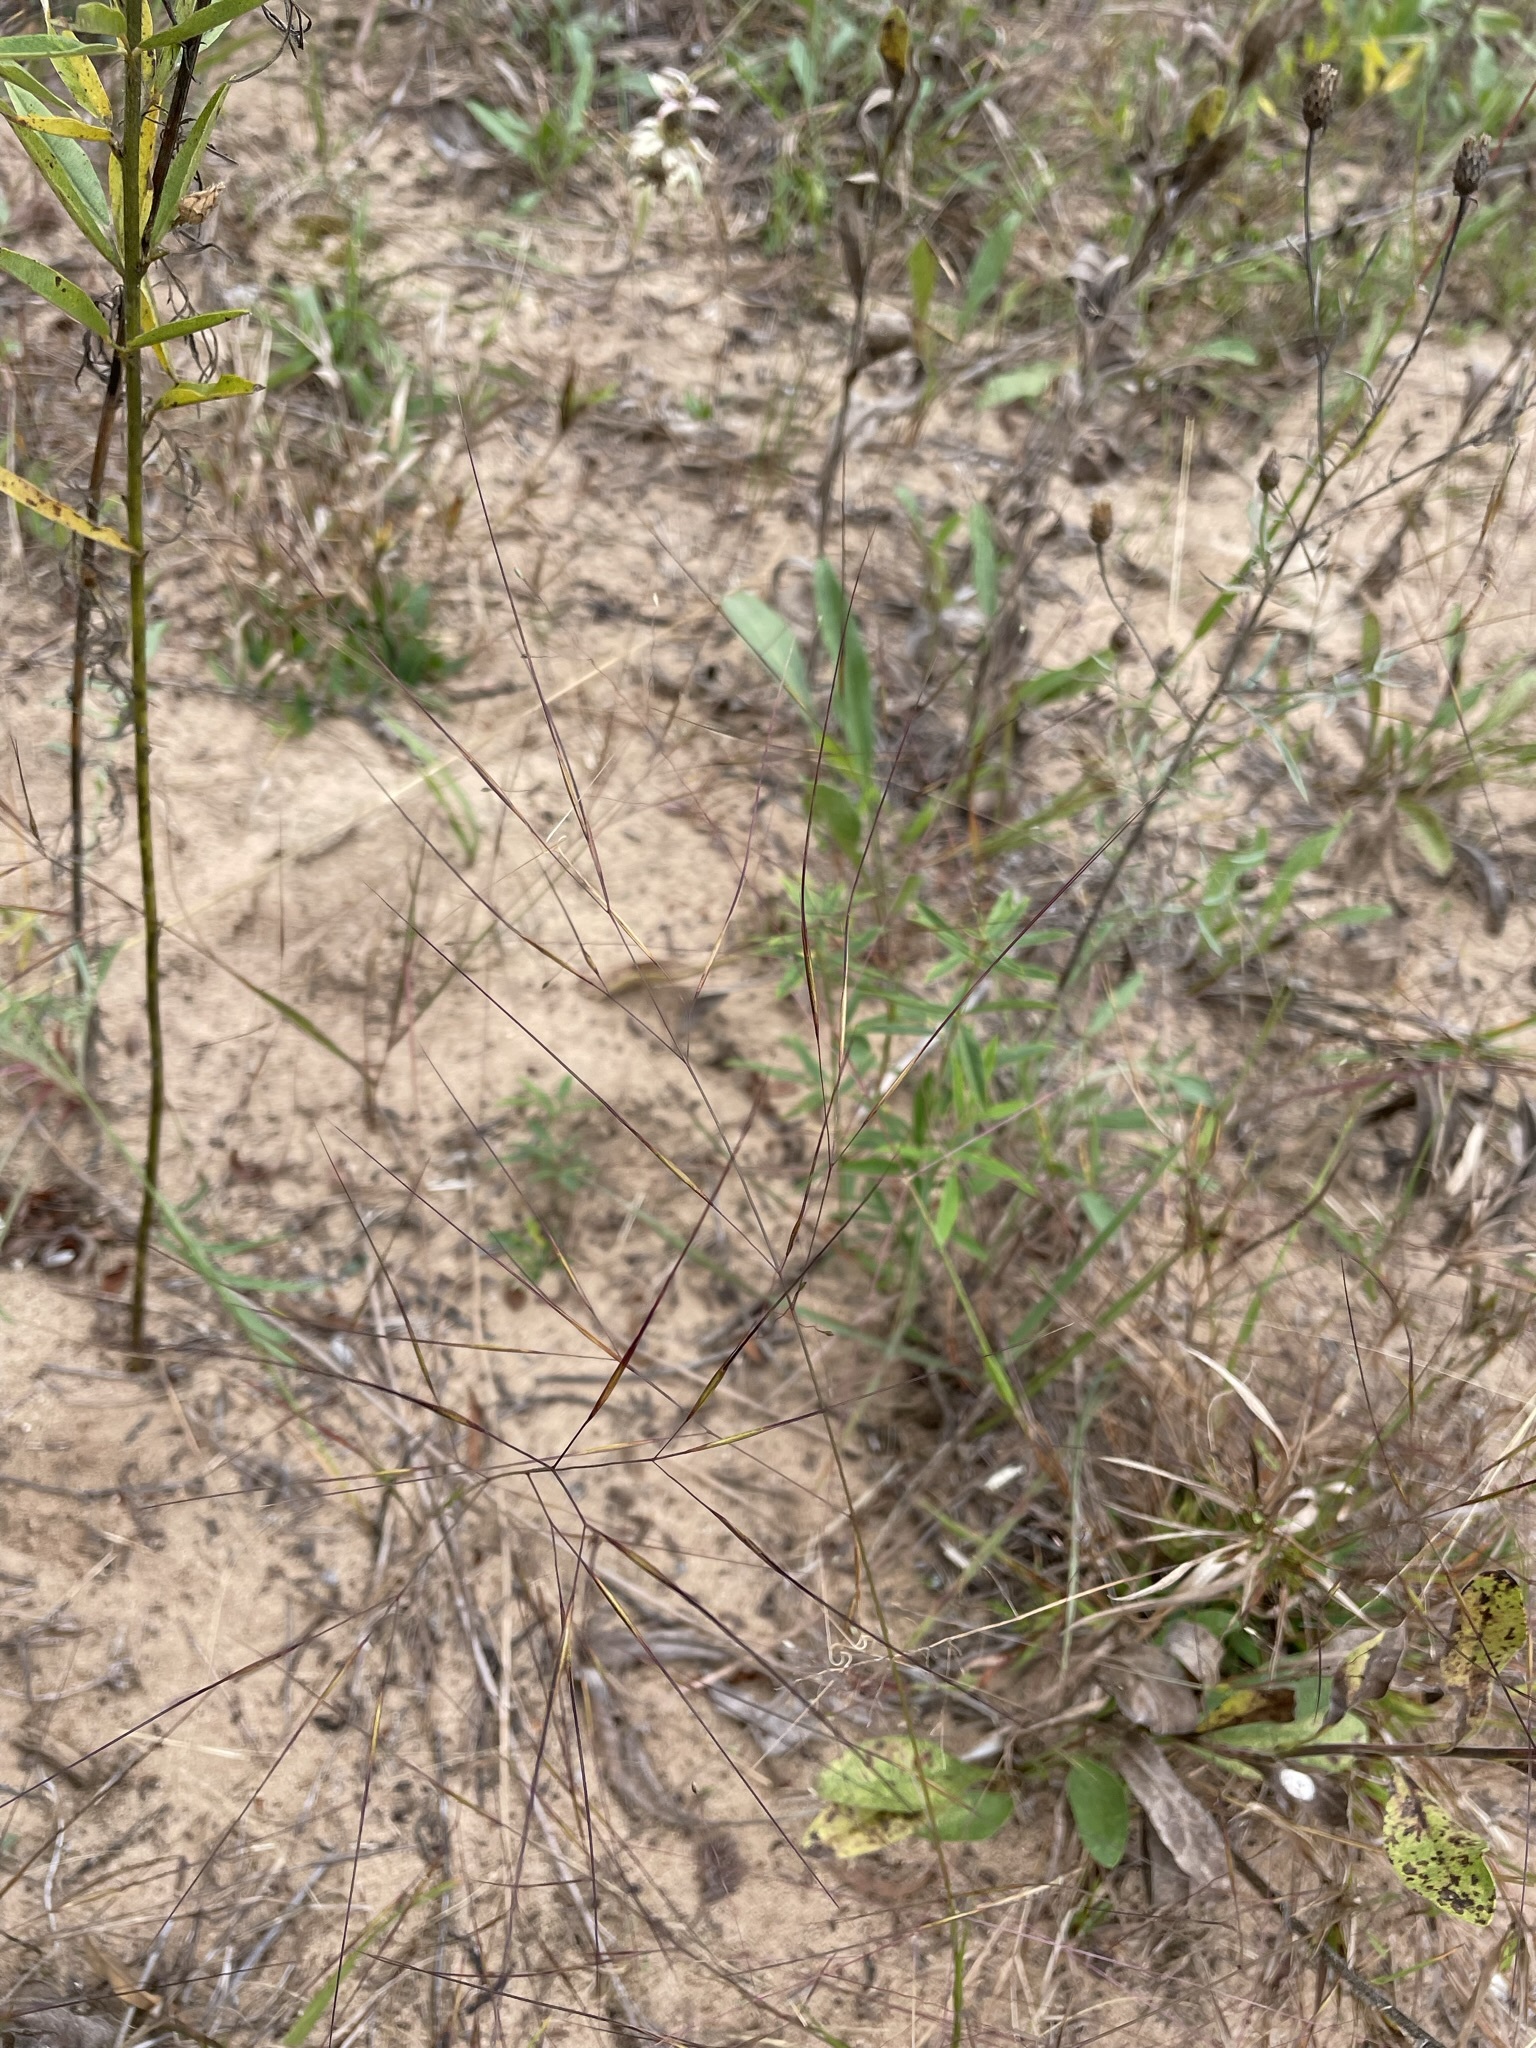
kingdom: Plantae
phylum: Tracheophyta
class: Liliopsida
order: Poales
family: Poaceae
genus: Aristida
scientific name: Aristida tuberculosa
